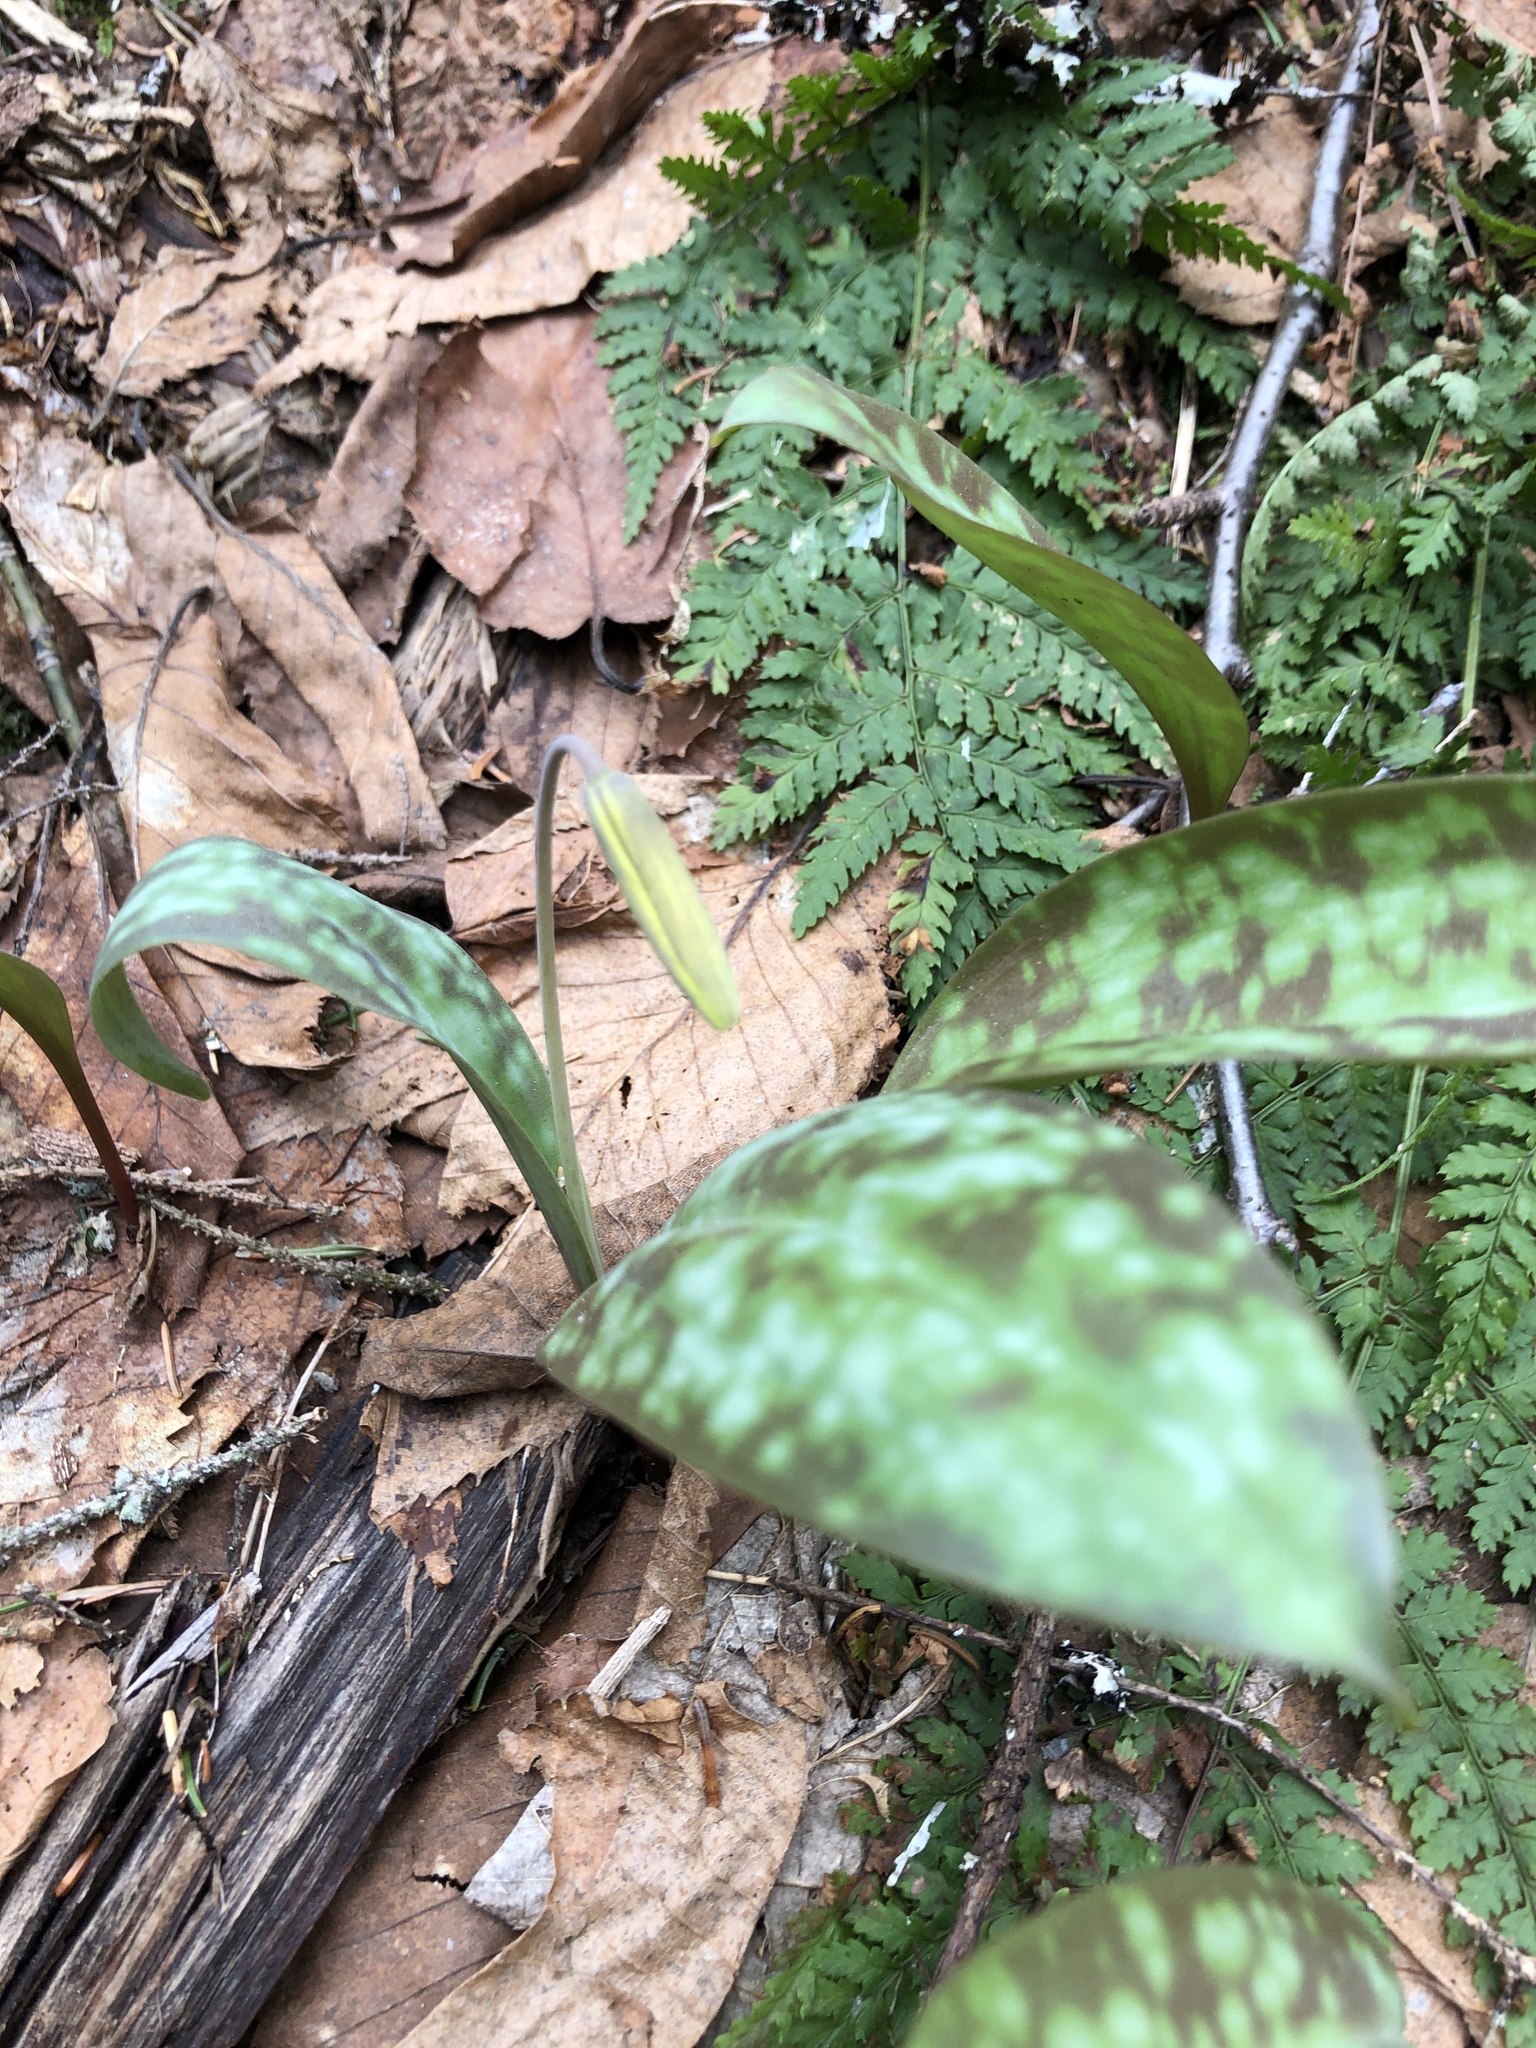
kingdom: Plantae
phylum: Tracheophyta
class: Liliopsida
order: Liliales
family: Liliaceae
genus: Erythronium
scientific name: Erythronium americanum
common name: Yellow adder's-tongue
